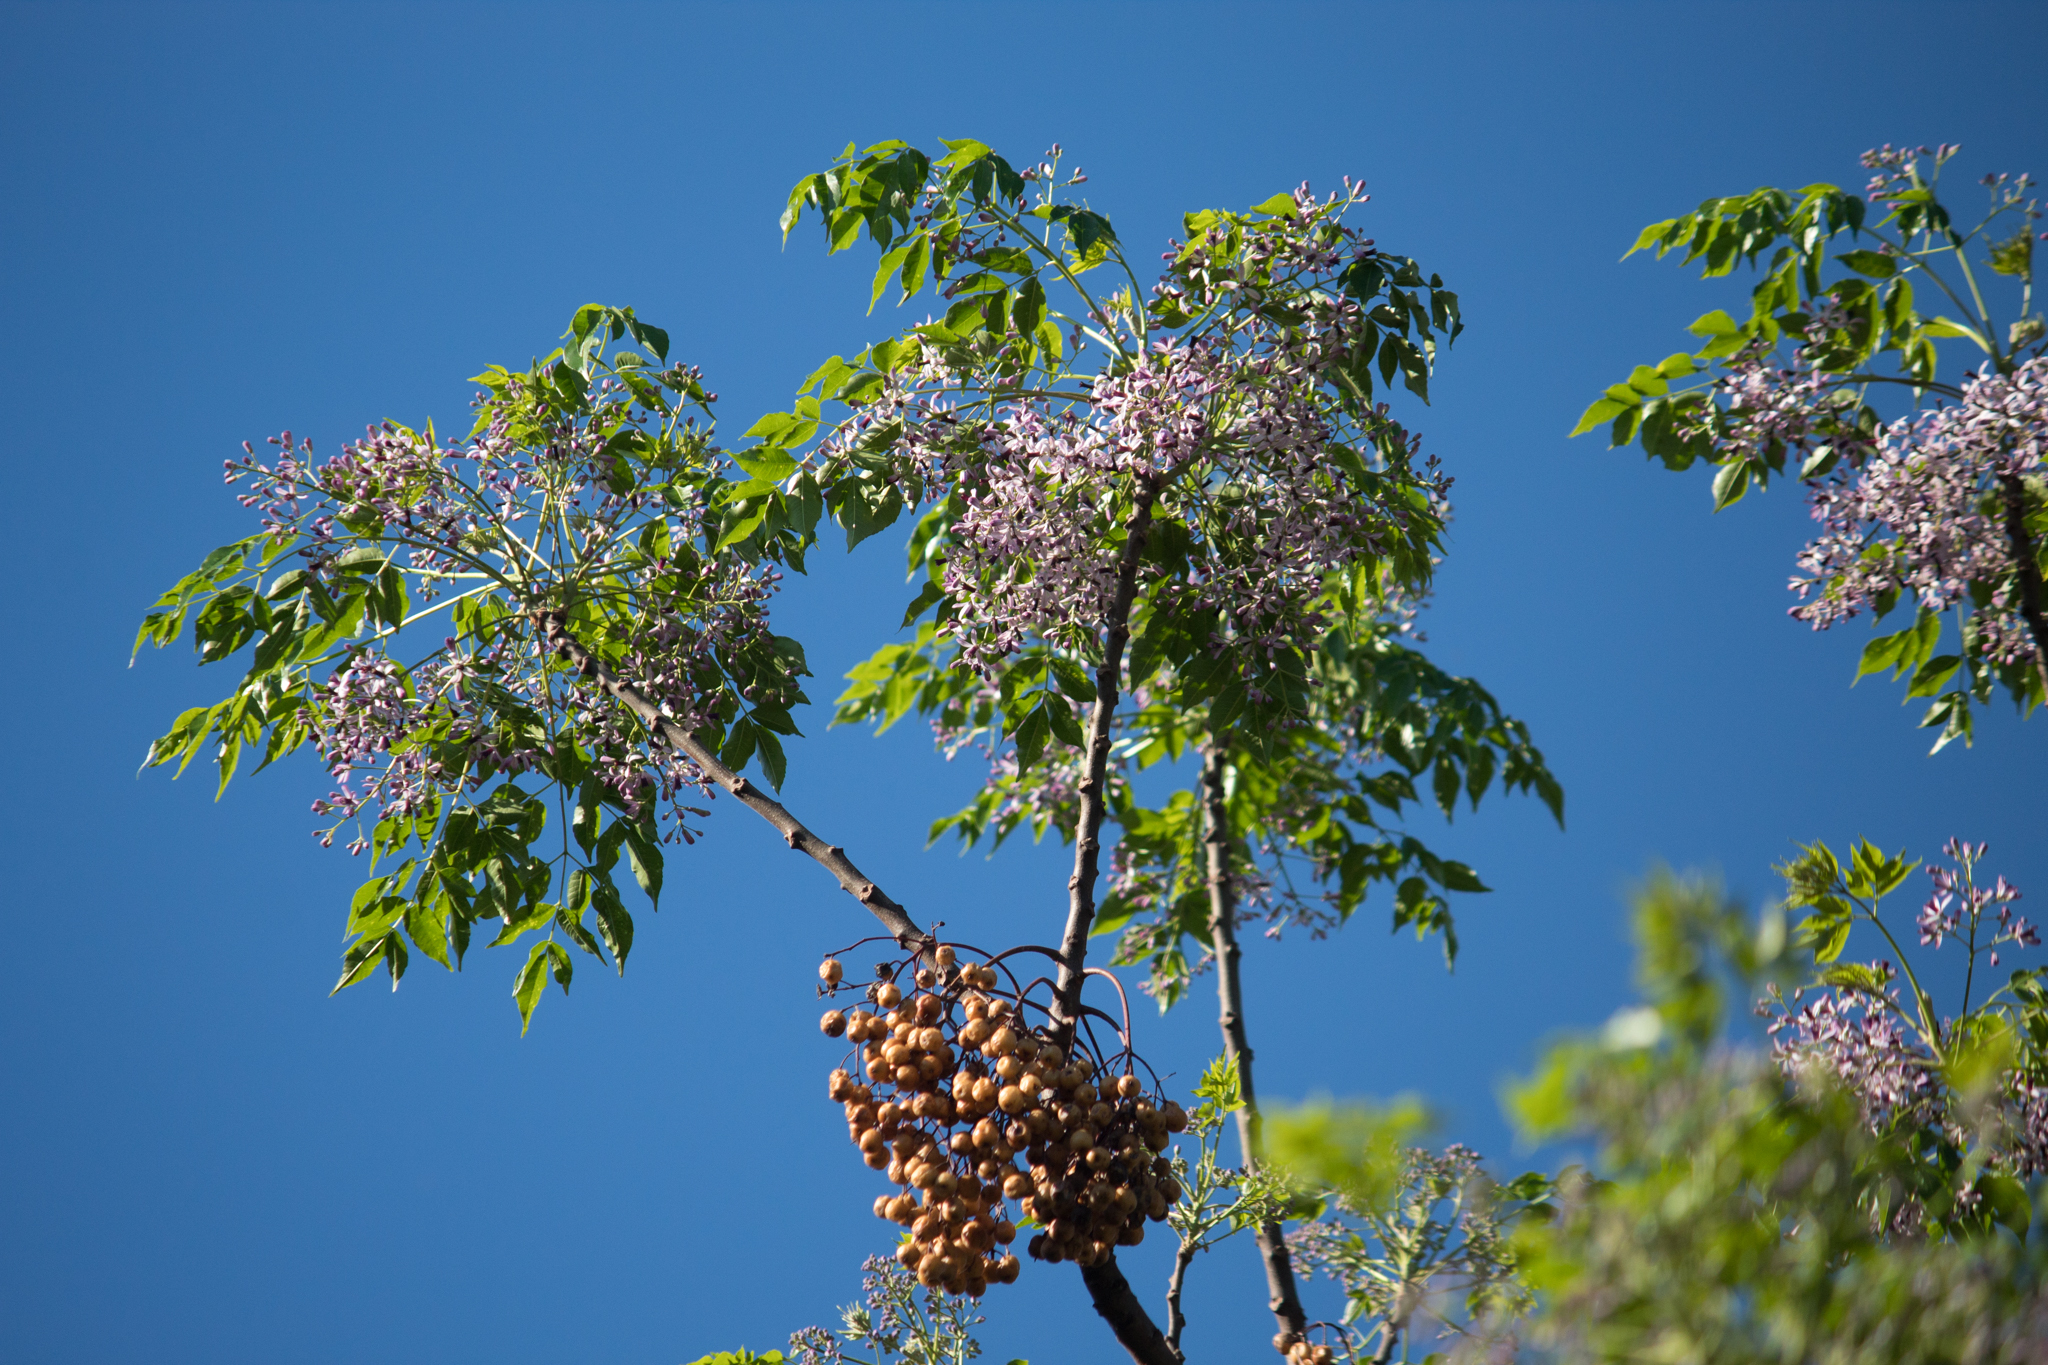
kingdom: Plantae
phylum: Tracheophyta
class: Magnoliopsida
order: Sapindales
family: Meliaceae
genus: Melia
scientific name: Melia azedarach
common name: Chinaberrytree
